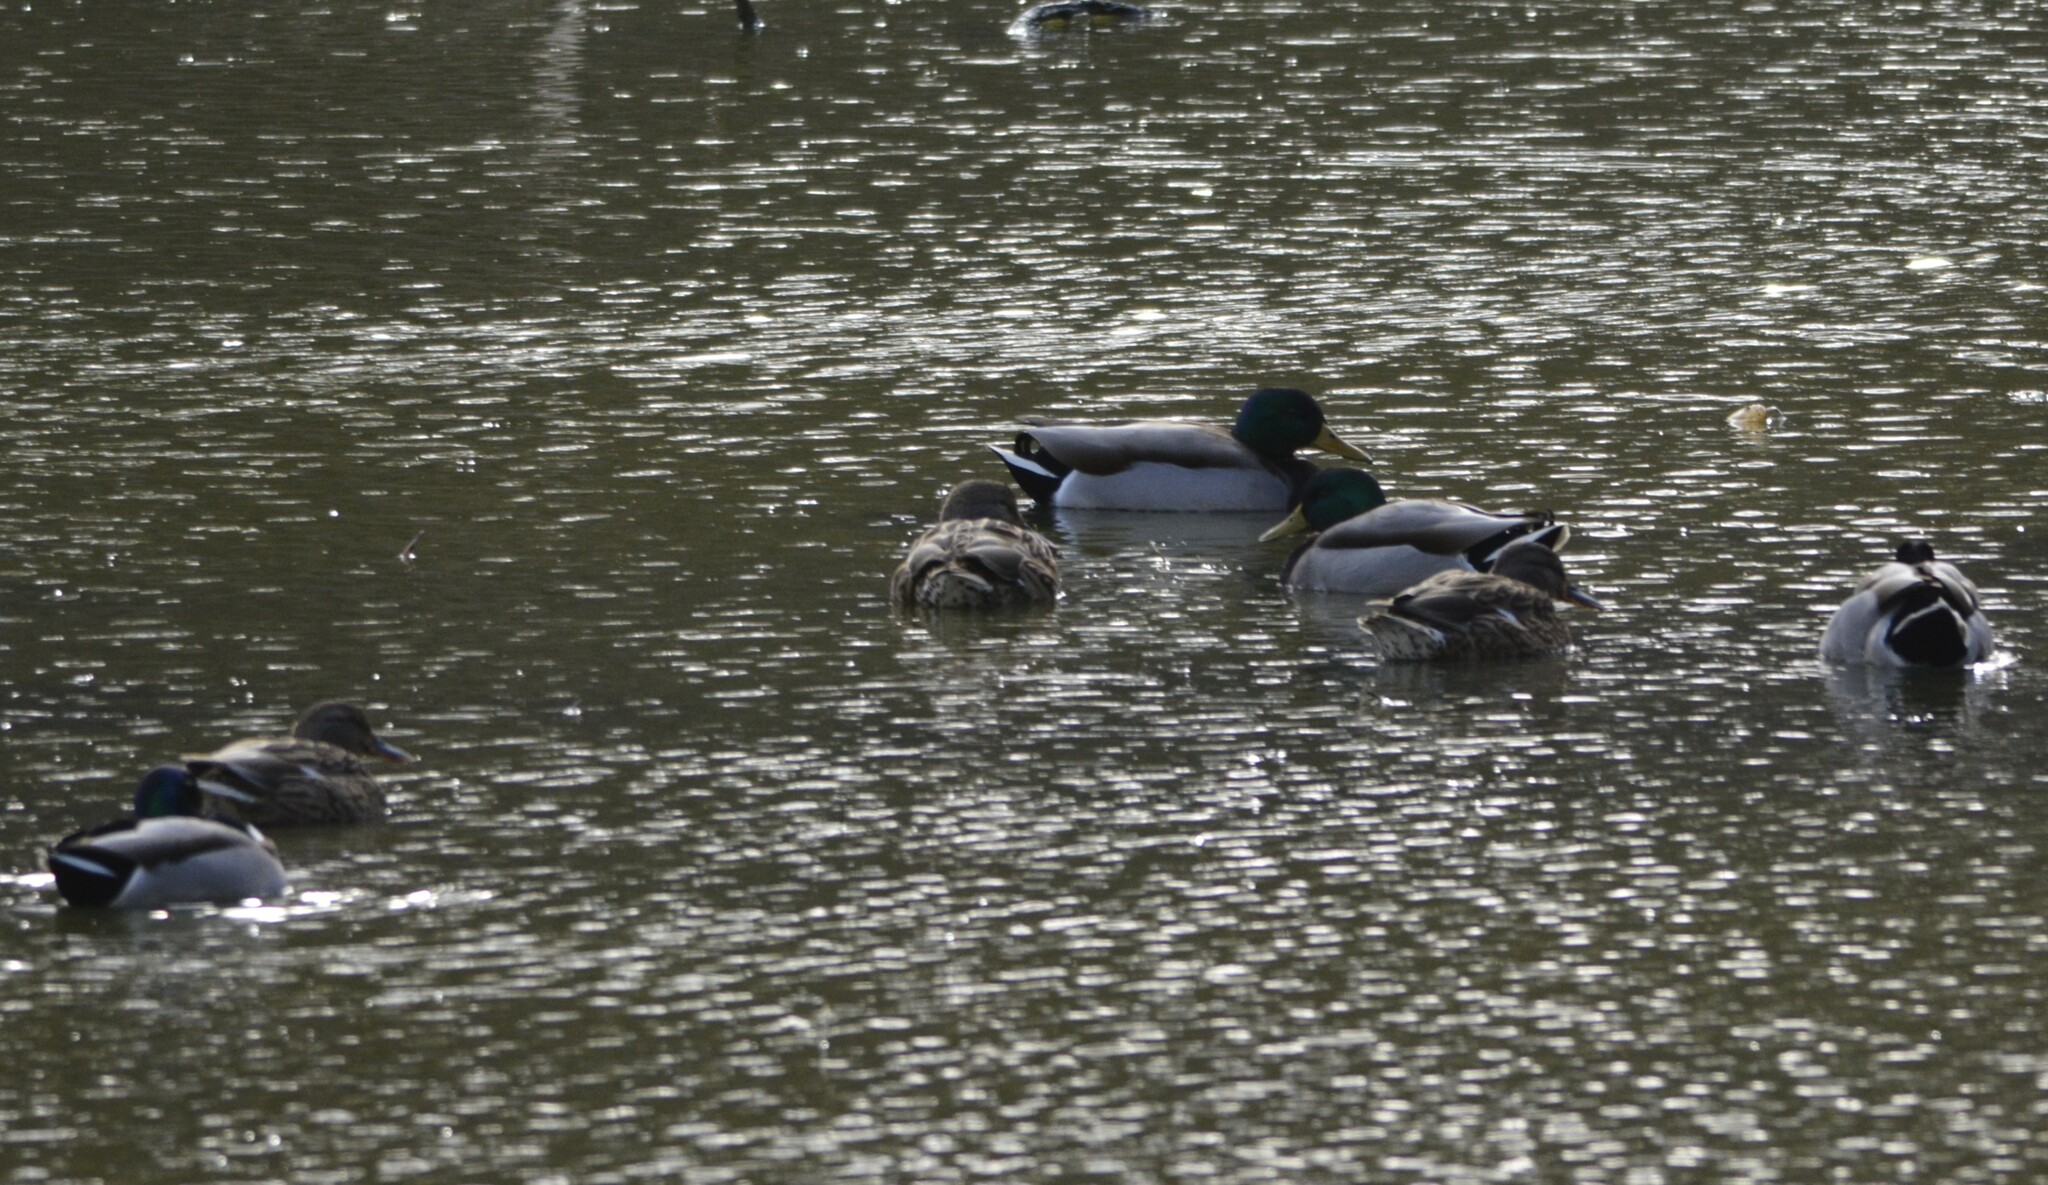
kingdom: Animalia
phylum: Chordata
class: Aves
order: Anseriformes
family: Anatidae
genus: Anas
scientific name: Anas platyrhynchos
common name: Mallard
